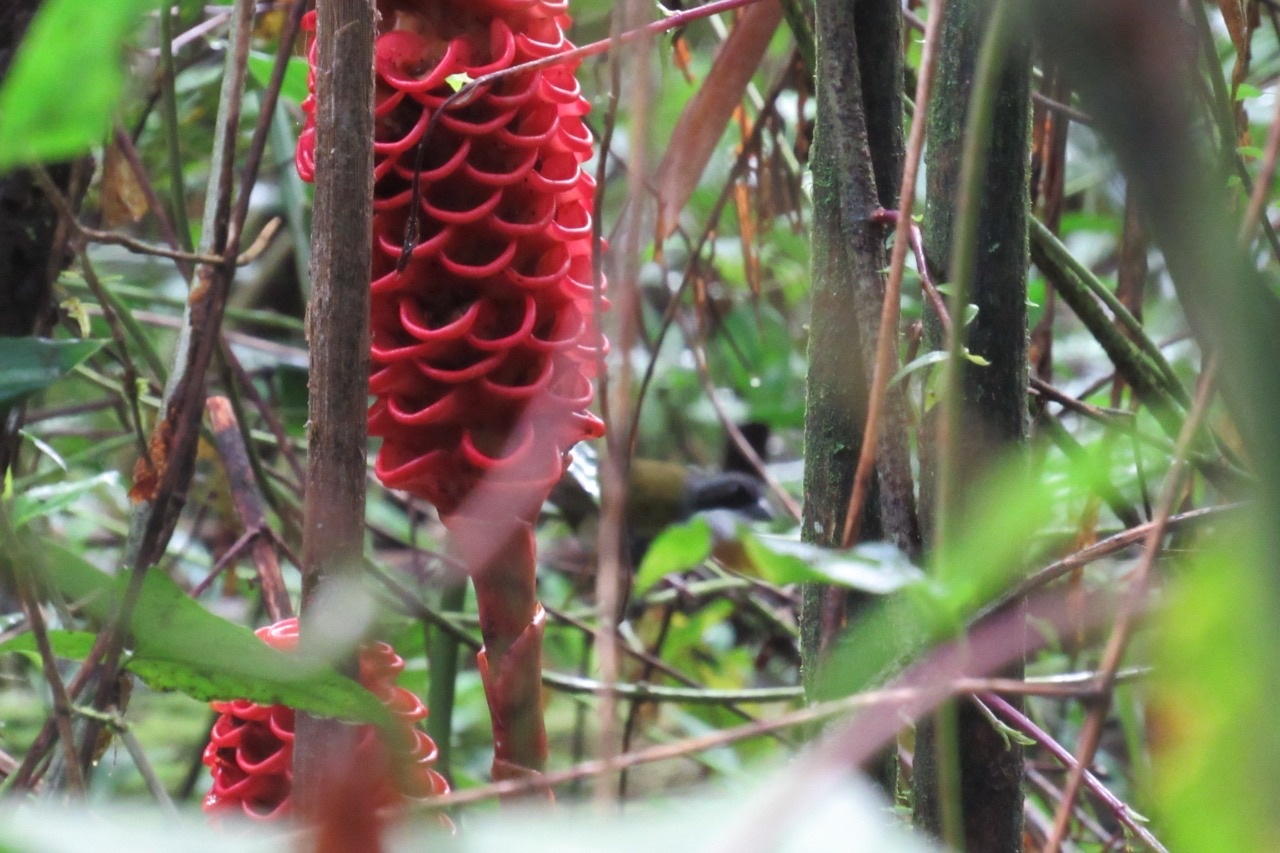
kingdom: Animalia
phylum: Chordata
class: Aves
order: Passeriformes
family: Passerellidae
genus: Arremon
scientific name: Arremon costaricensis
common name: Costa rican brushfinch
